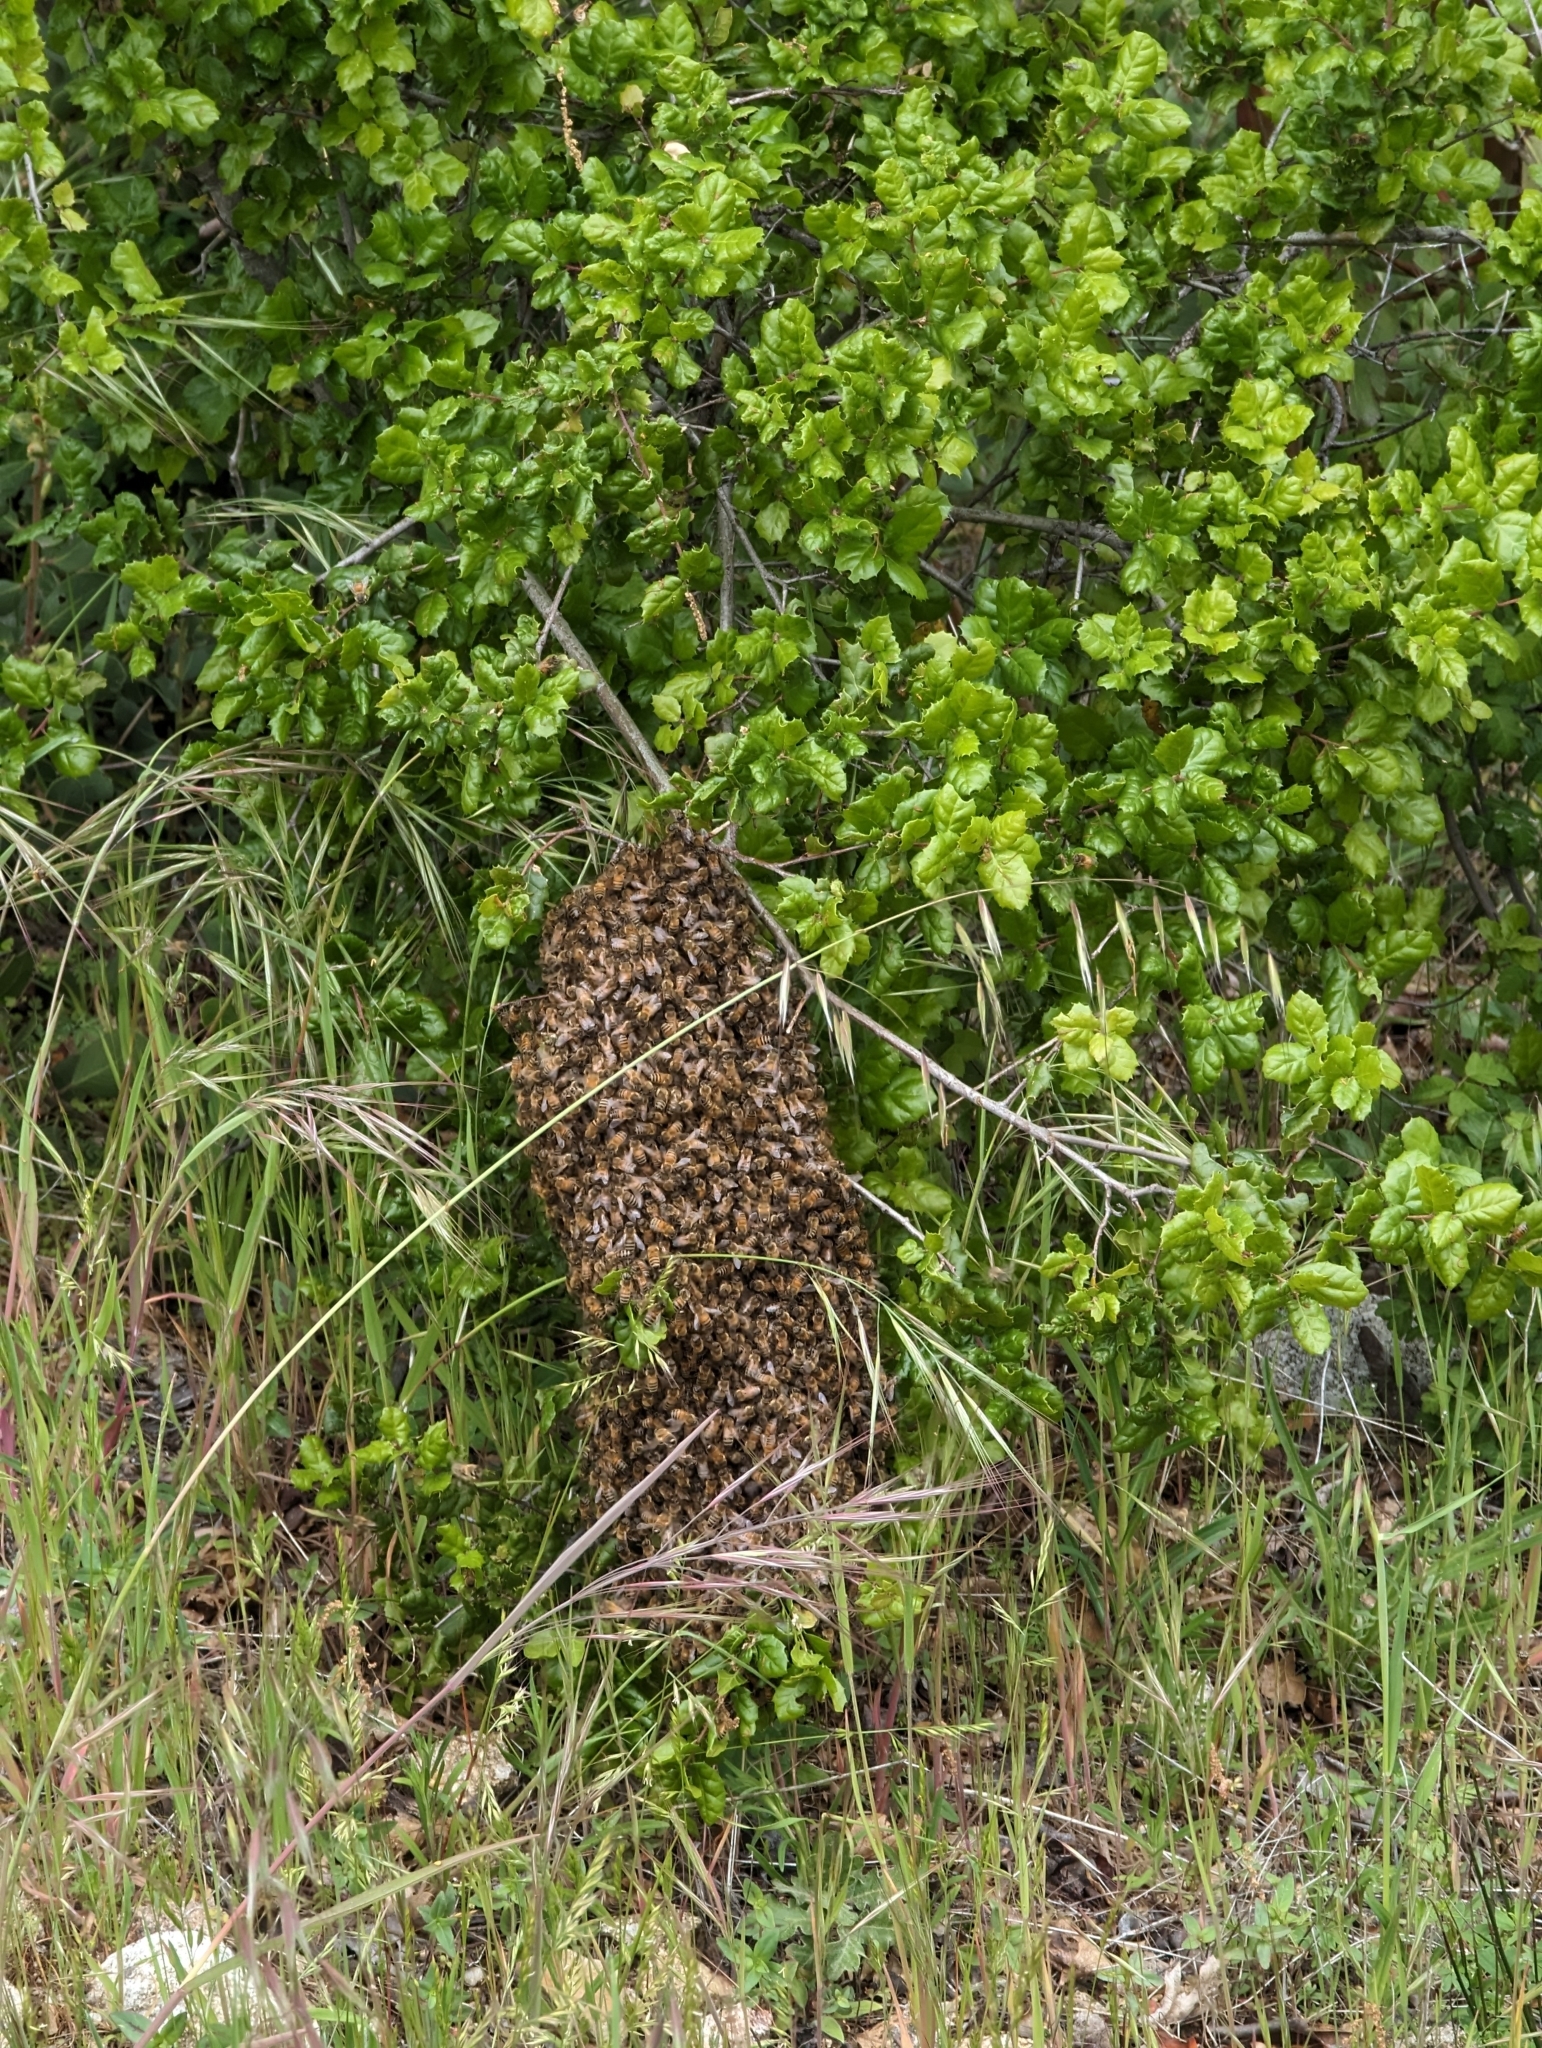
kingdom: Animalia
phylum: Arthropoda
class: Insecta
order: Hymenoptera
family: Apidae
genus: Apis
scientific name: Apis mellifera
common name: Honey bee
